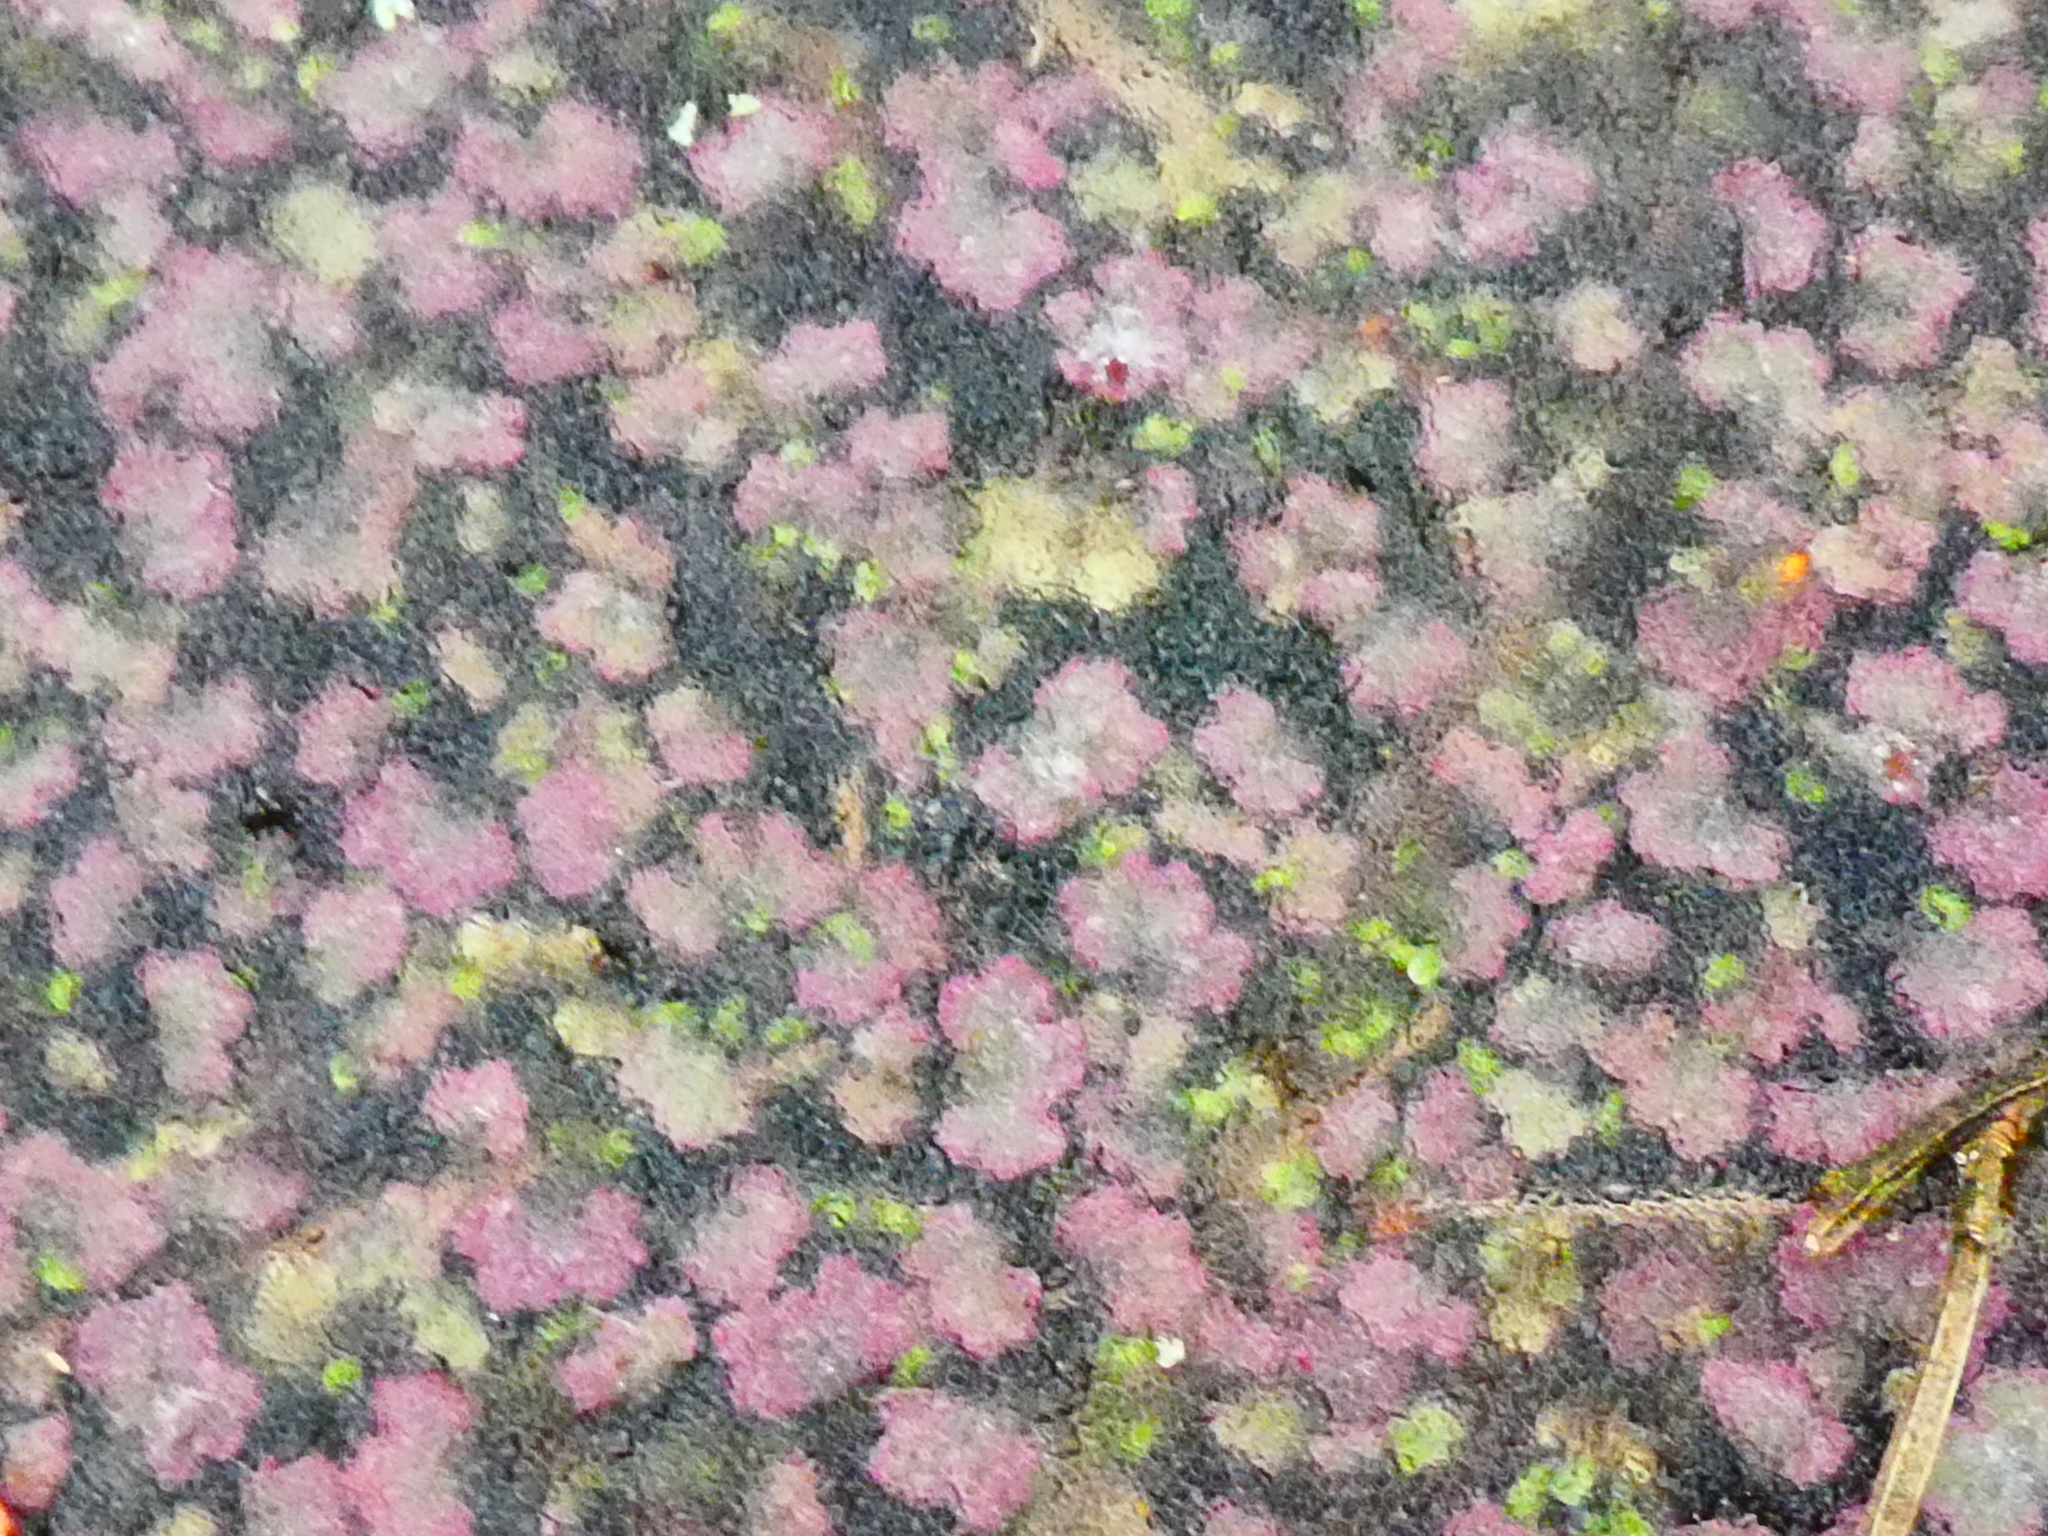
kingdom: Plantae
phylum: Tracheophyta
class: Polypodiopsida
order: Salviniales
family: Salviniaceae
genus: Azolla
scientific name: Azolla filiculoides
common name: Water fern
